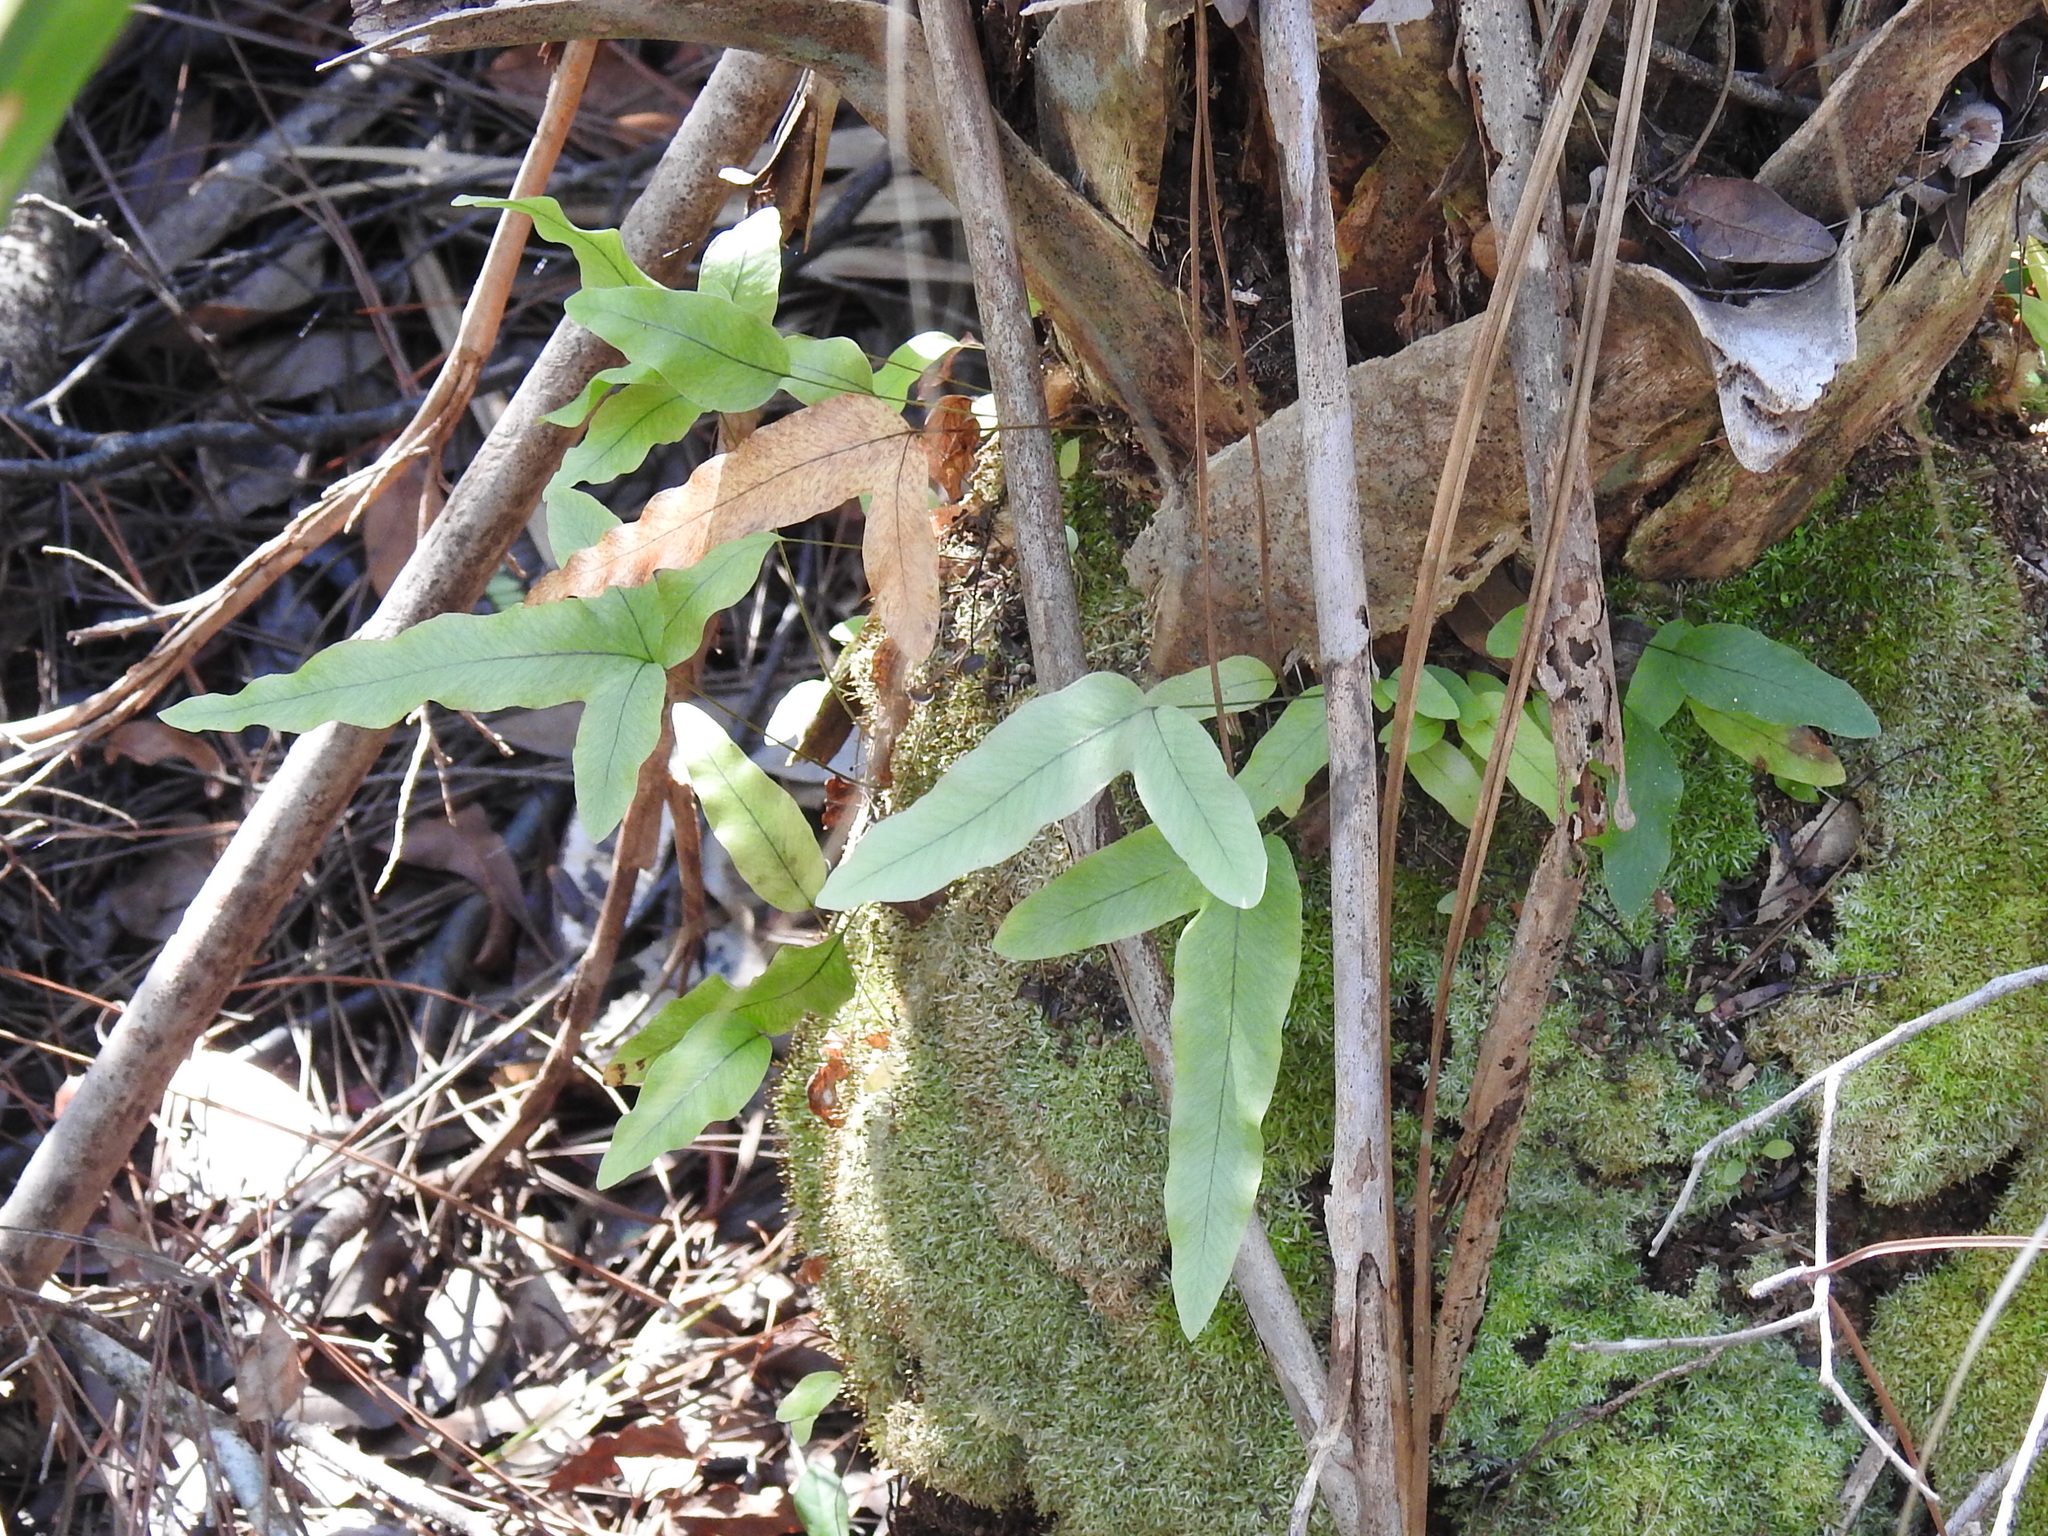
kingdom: Plantae
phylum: Tracheophyta
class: Polypodiopsida
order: Polypodiales
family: Polypodiaceae
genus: Phlebodium
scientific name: Phlebodium aureum
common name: Gold-foot fern
